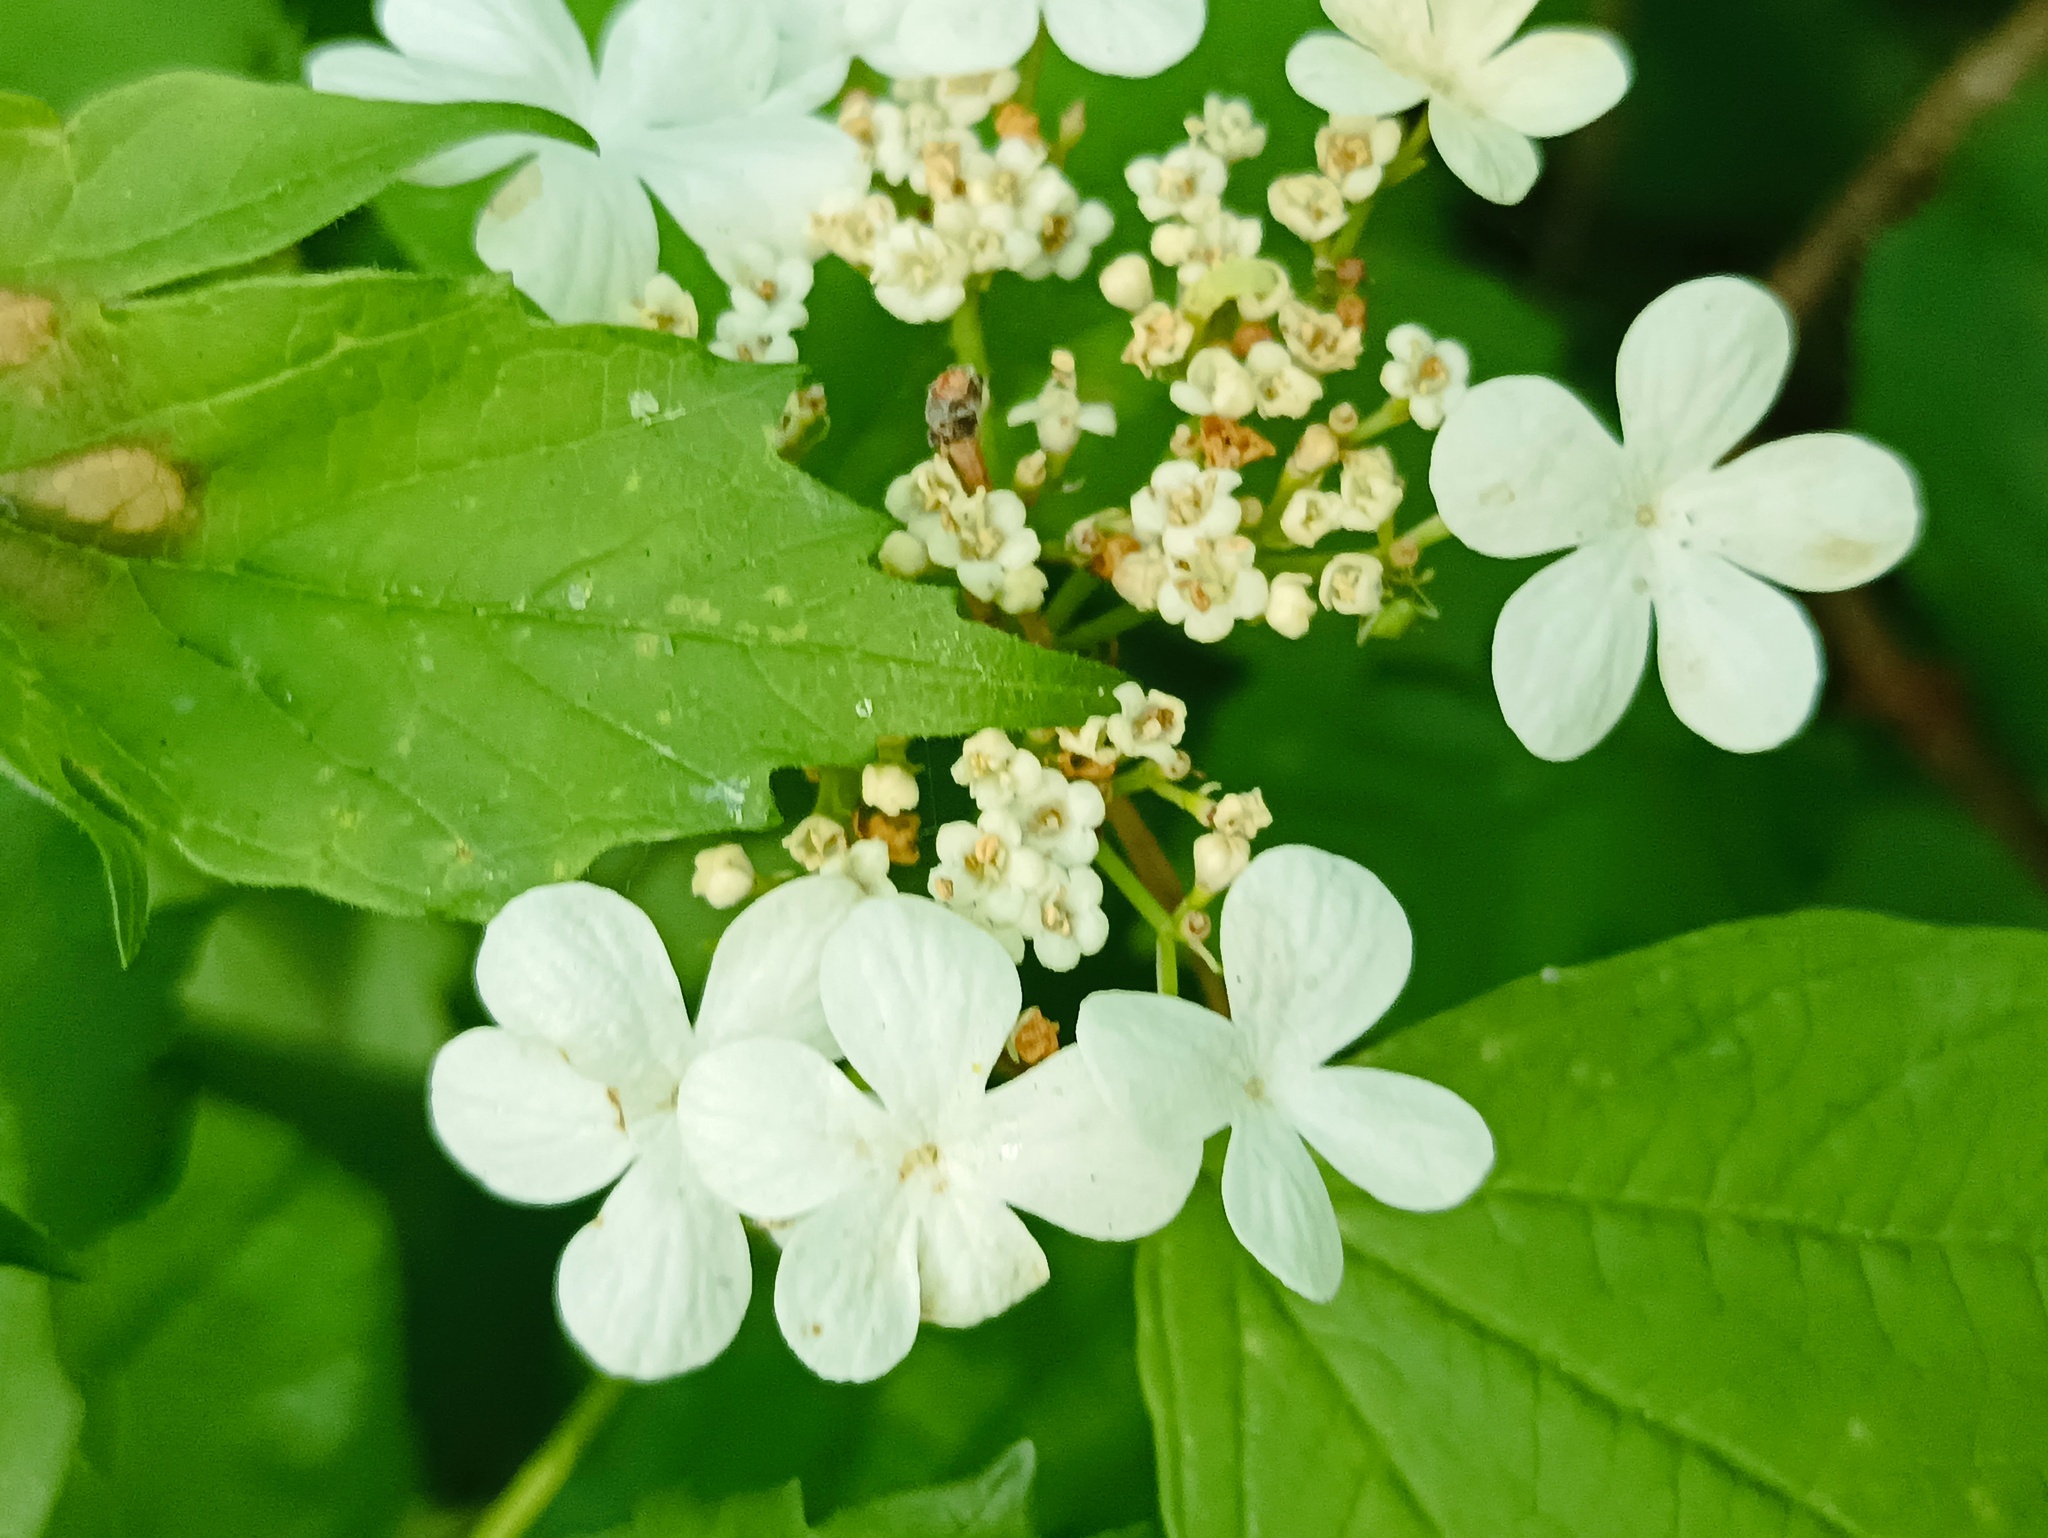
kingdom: Plantae
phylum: Tracheophyta
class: Magnoliopsida
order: Dipsacales
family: Viburnaceae
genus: Viburnum
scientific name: Viburnum opulus
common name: Guelder-rose
